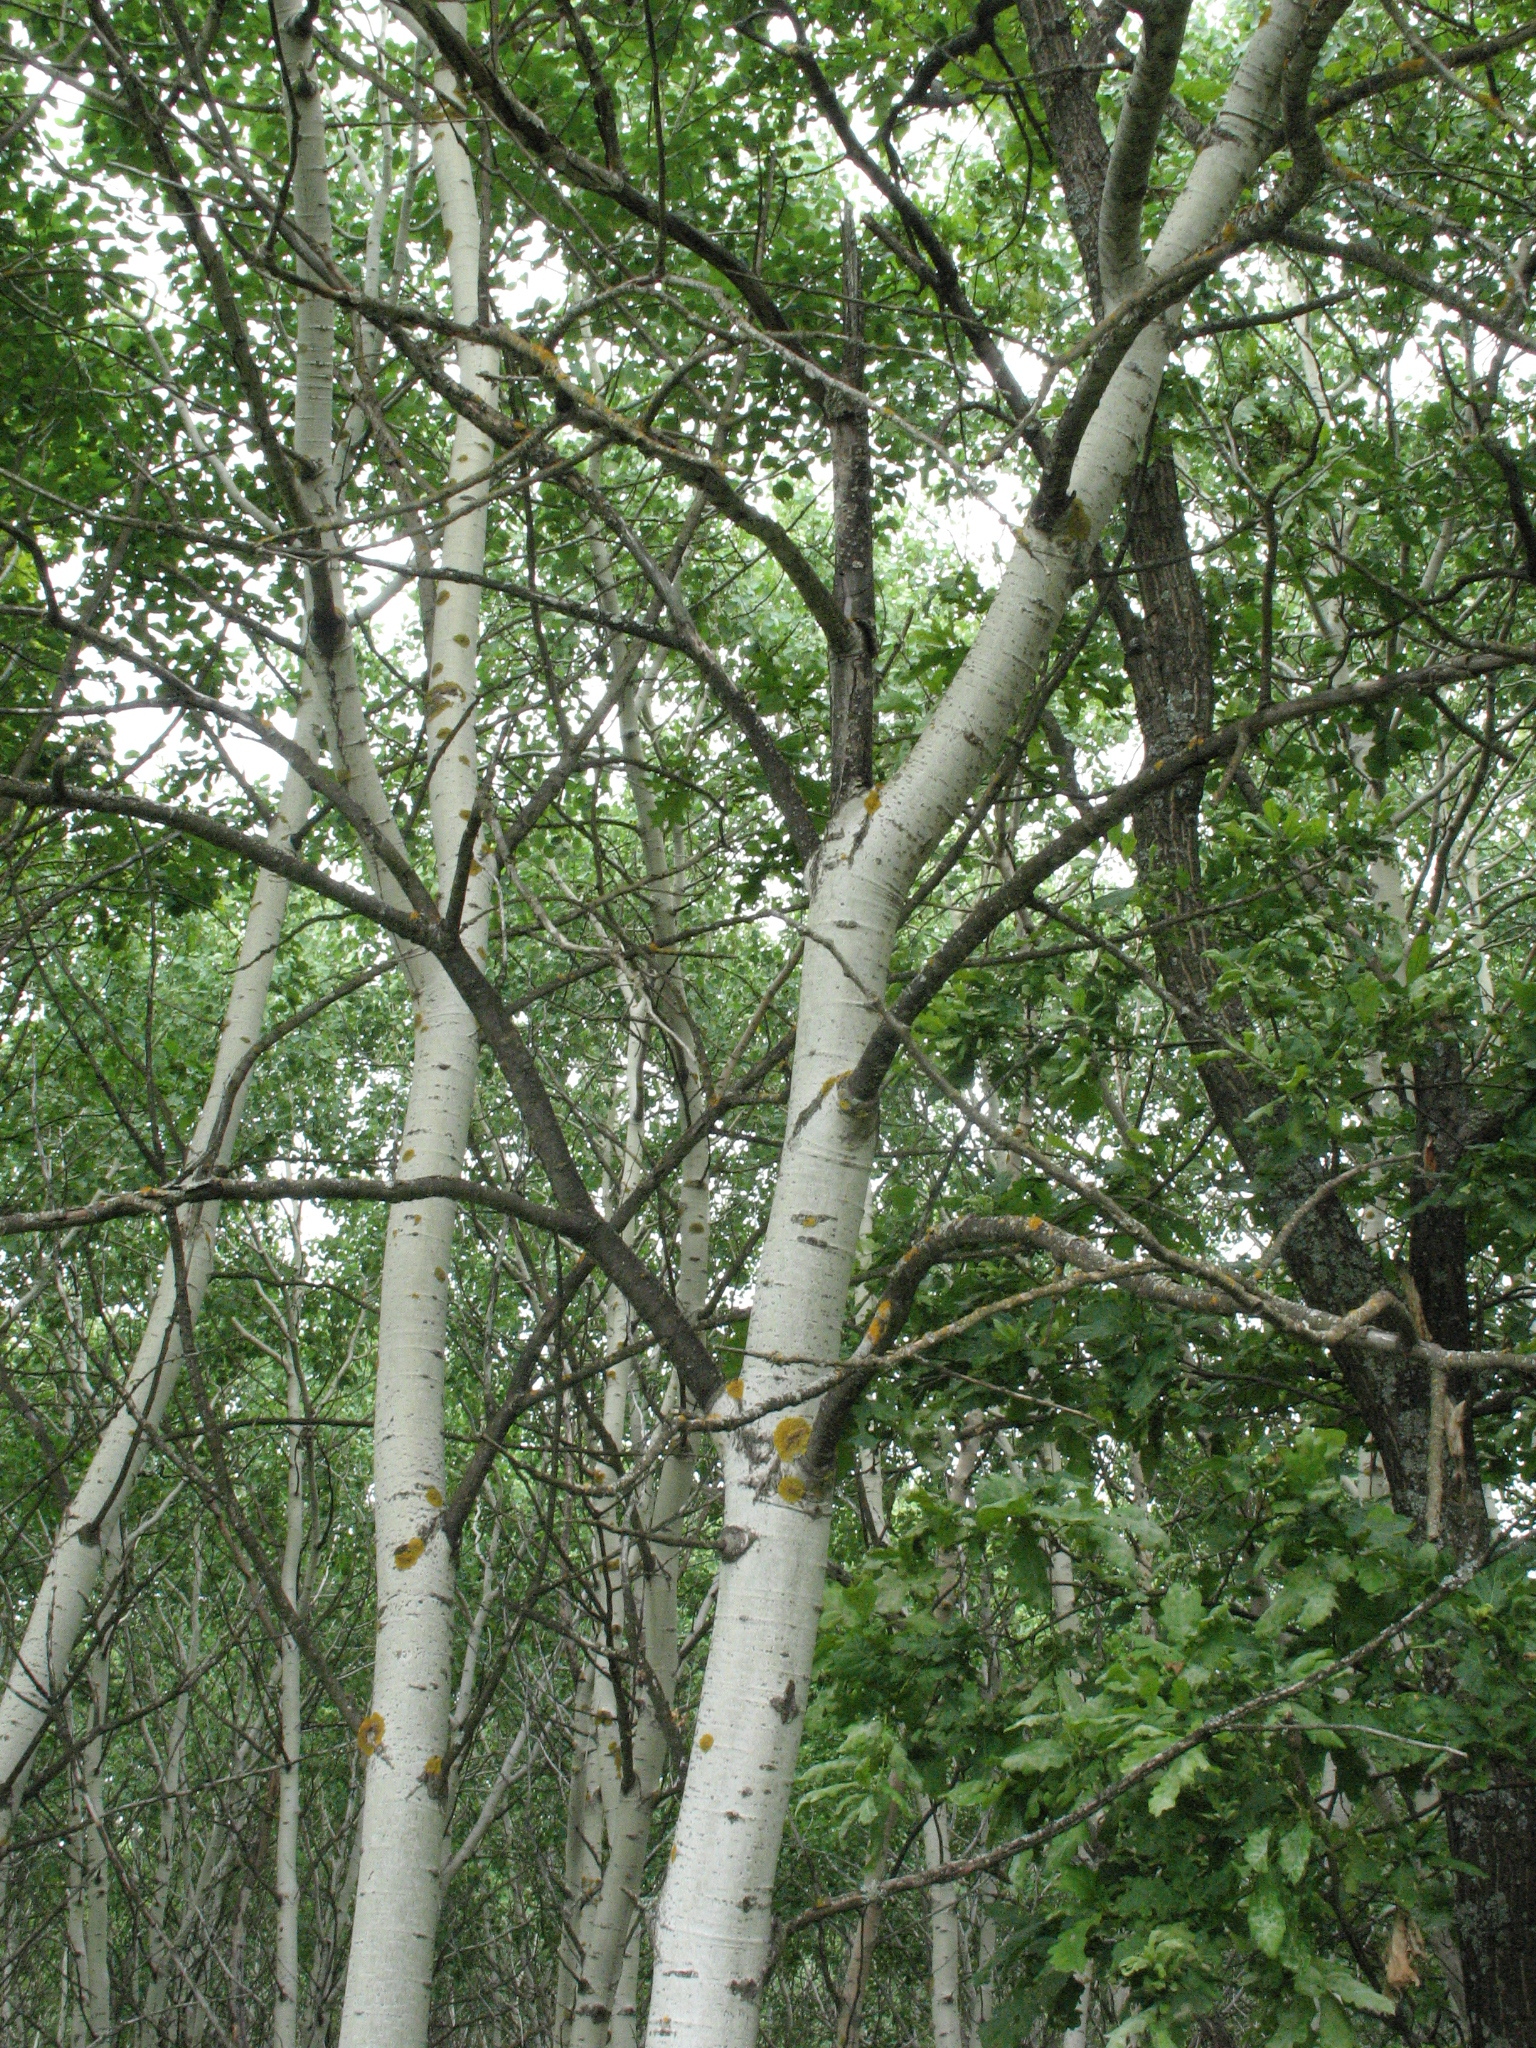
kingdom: Plantae
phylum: Tracheophyta
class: Magnoliopsida
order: Malpighiales
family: Salicaceae
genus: Populus
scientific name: Populus tremula
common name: European aspen
